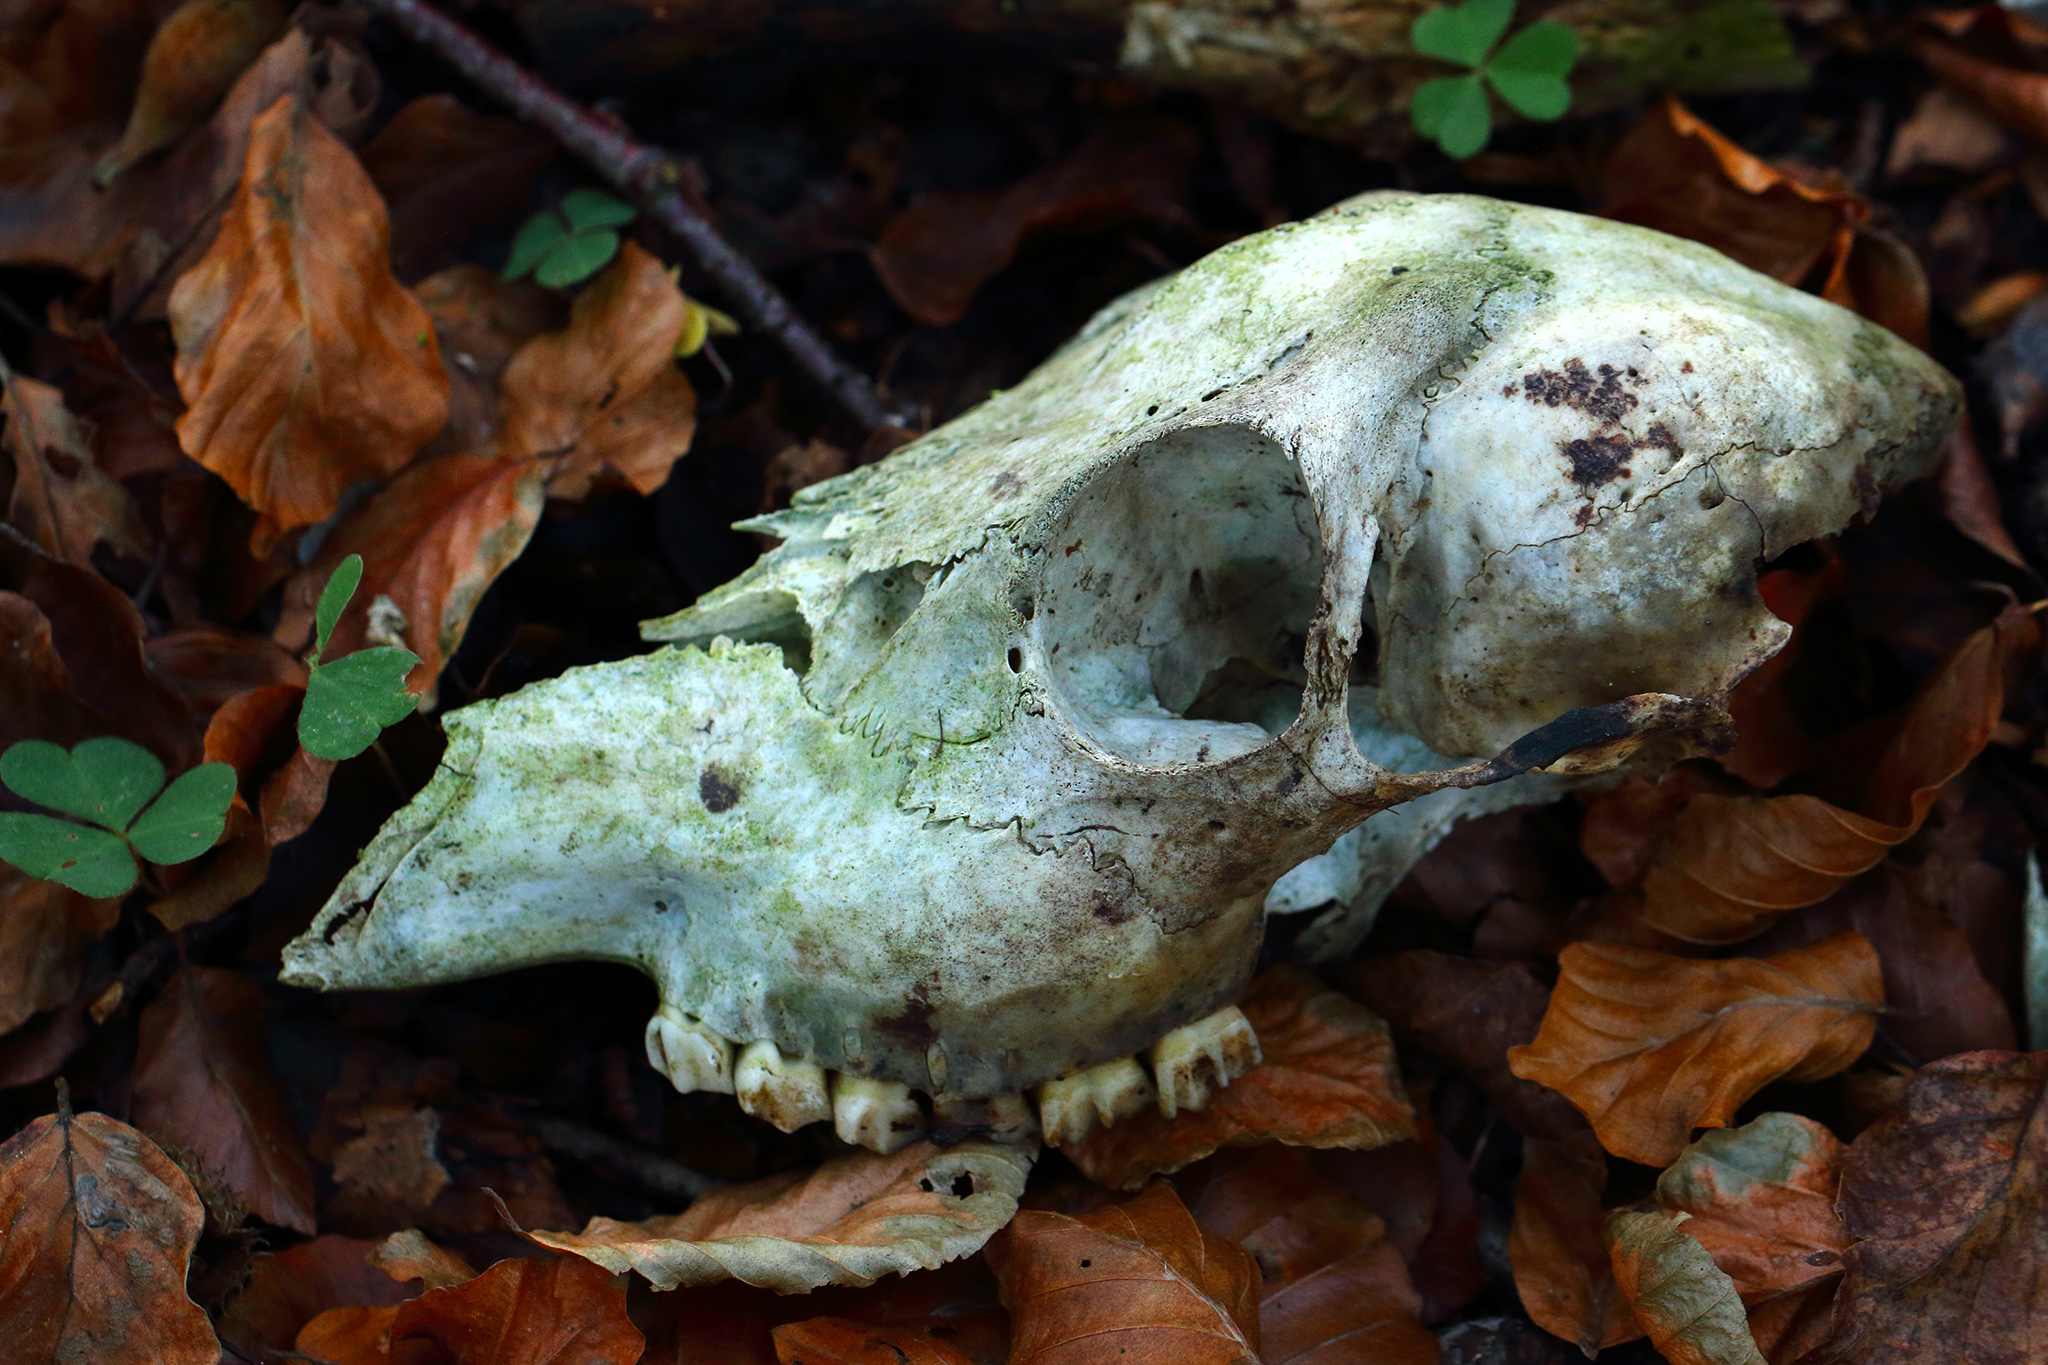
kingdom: Animalia
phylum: Chordata
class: Mammalia
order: Artiodactyla
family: Cervidae
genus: Capreolus
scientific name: Capreolus capreolus
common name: Western roe deer
